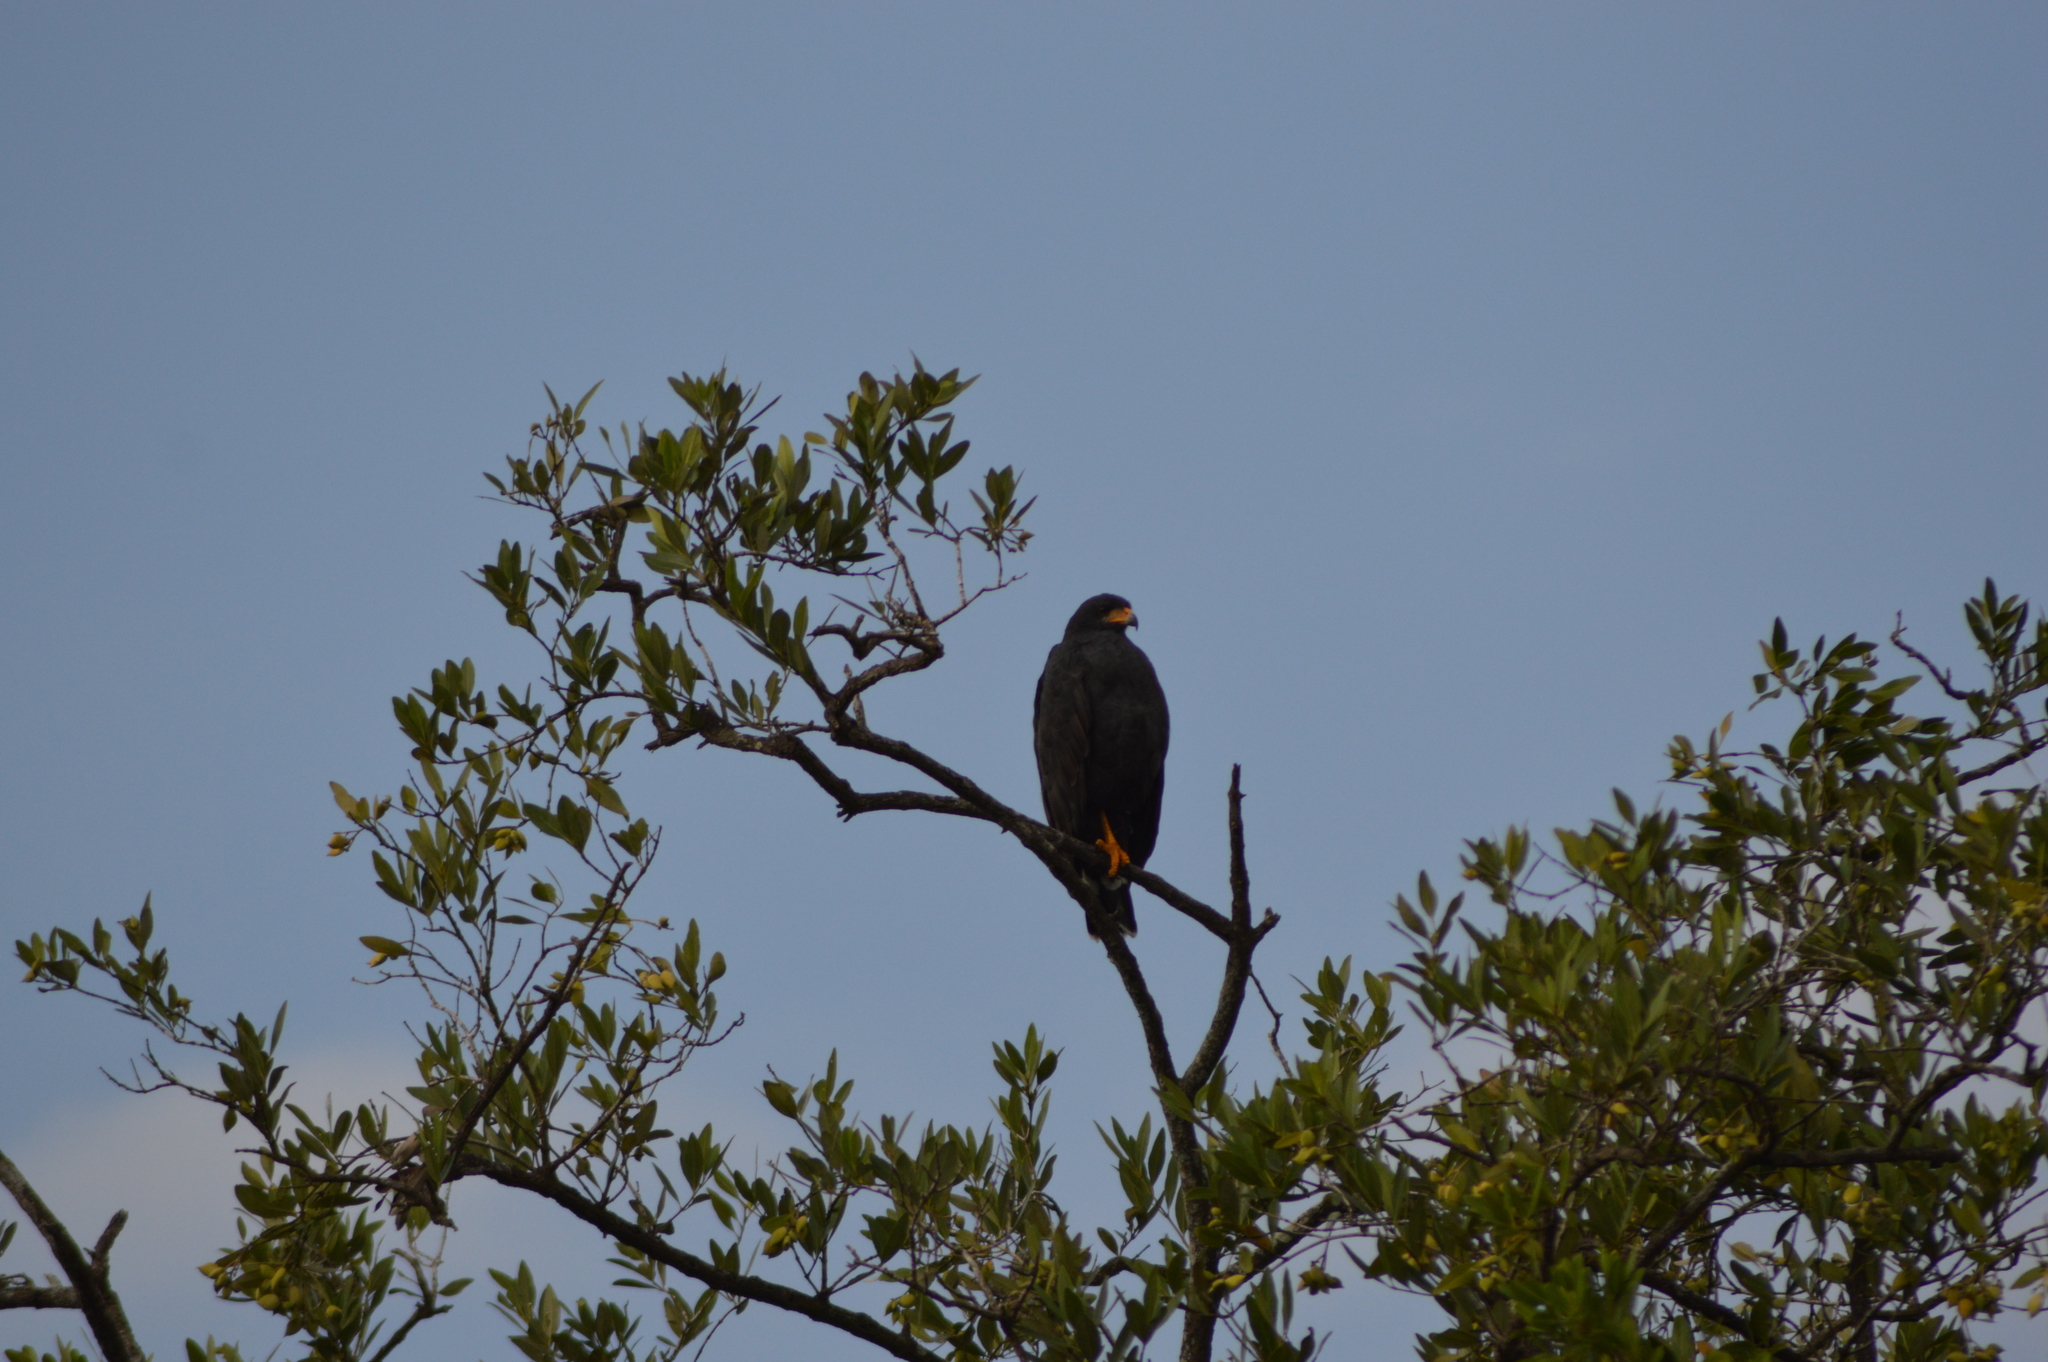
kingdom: Animalia
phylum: Chordata
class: Aves
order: Accipitriformes
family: Accipitridae
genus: Buteogallus
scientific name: Buteogallus anthracinus
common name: Common black hawk
